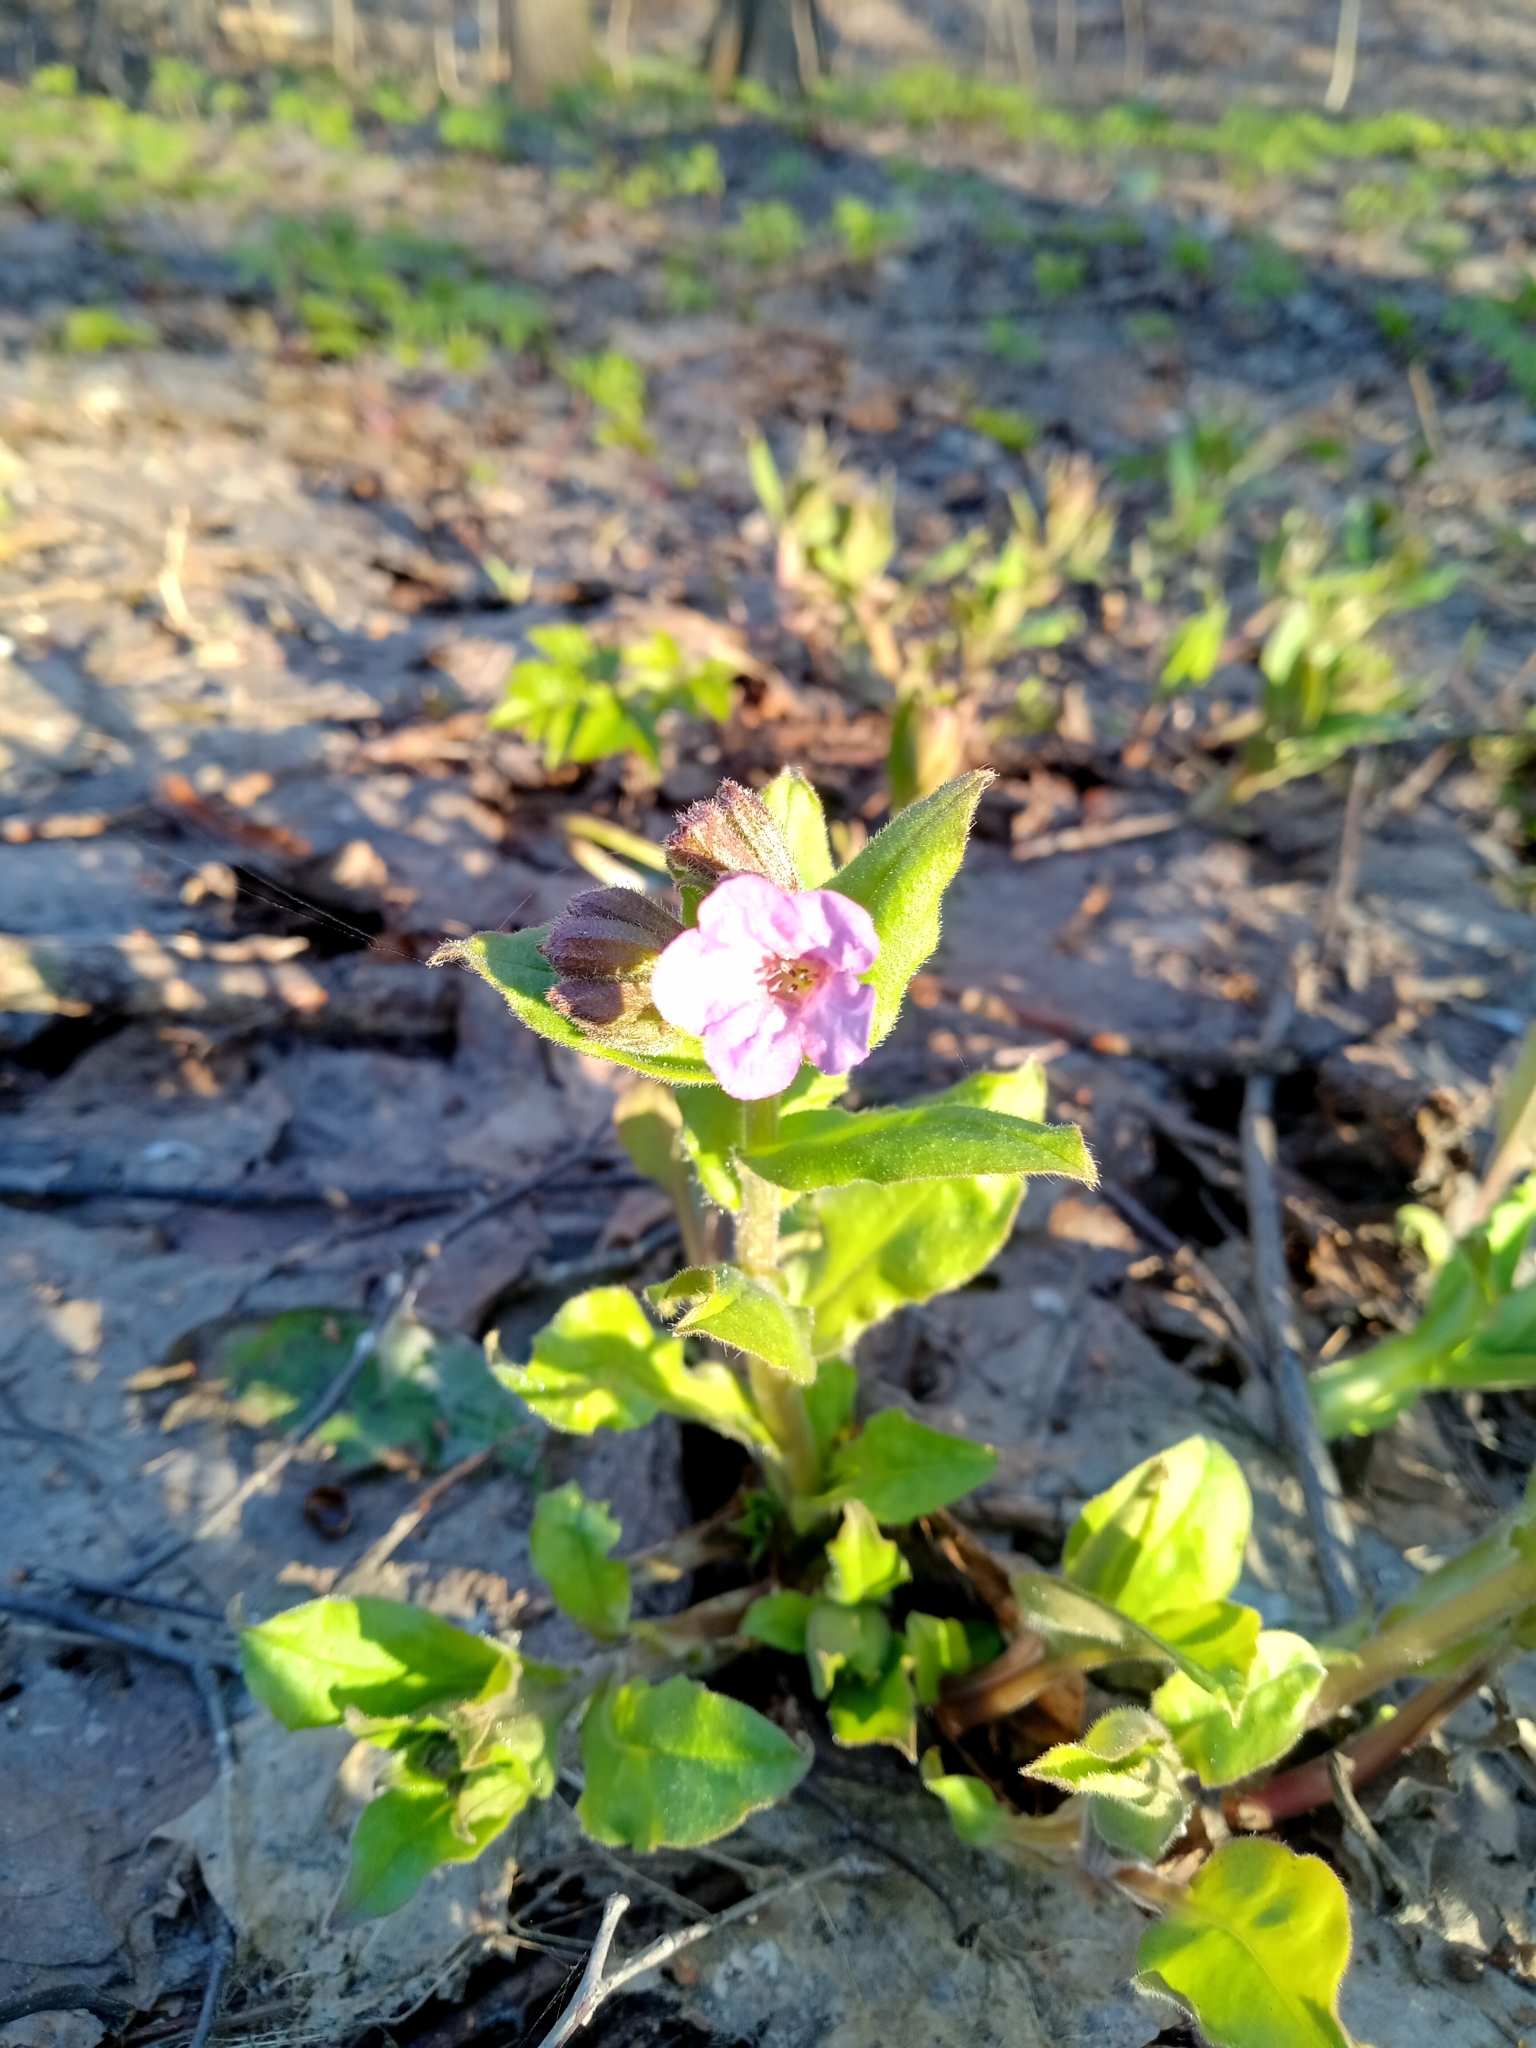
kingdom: Plantae
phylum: Tracheophyta
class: Magnoliopsida
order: Boraginales
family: Boraginaceae
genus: Pulmonaria
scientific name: Pulmonaria obscura
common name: Suffolk lungwort
